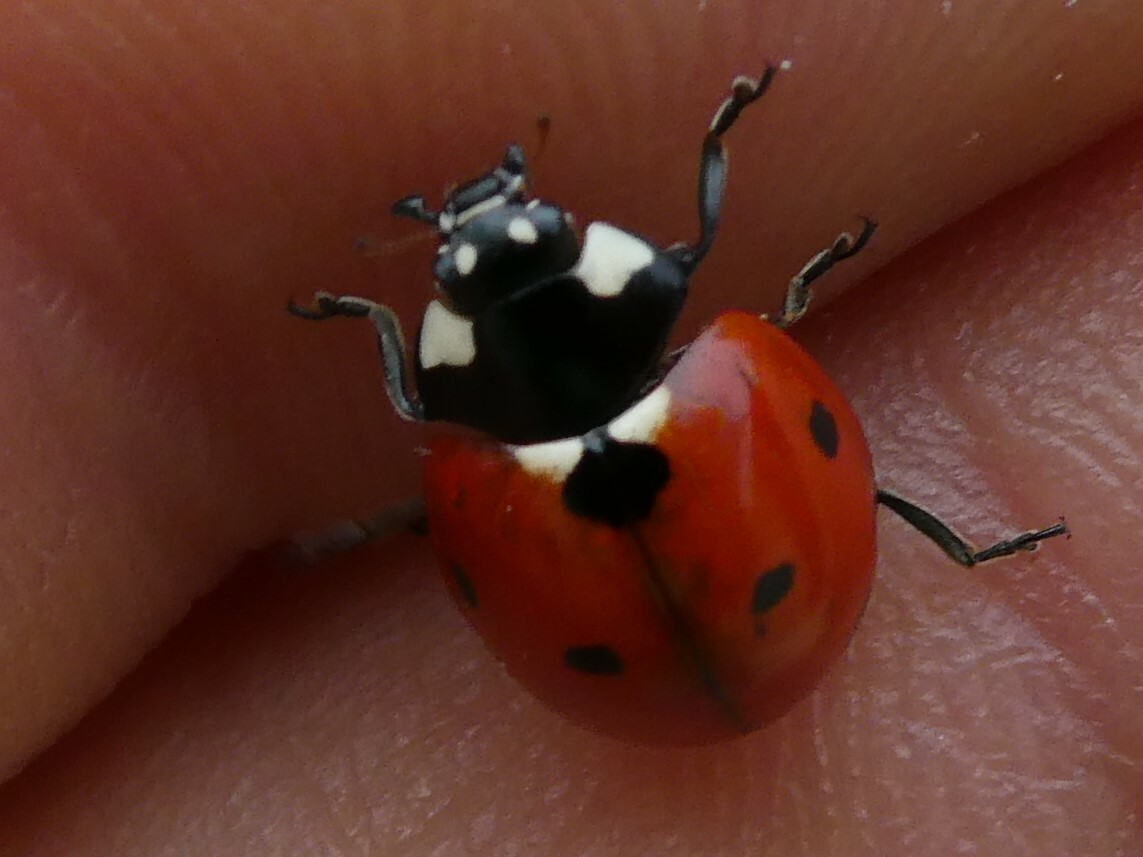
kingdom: Animalia
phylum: Arthropoda
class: Insecta
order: Coleoptera
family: Coccinellidae
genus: Coccinella
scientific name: Coccinella septempunctata
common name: Sevenspotted lady beetle
